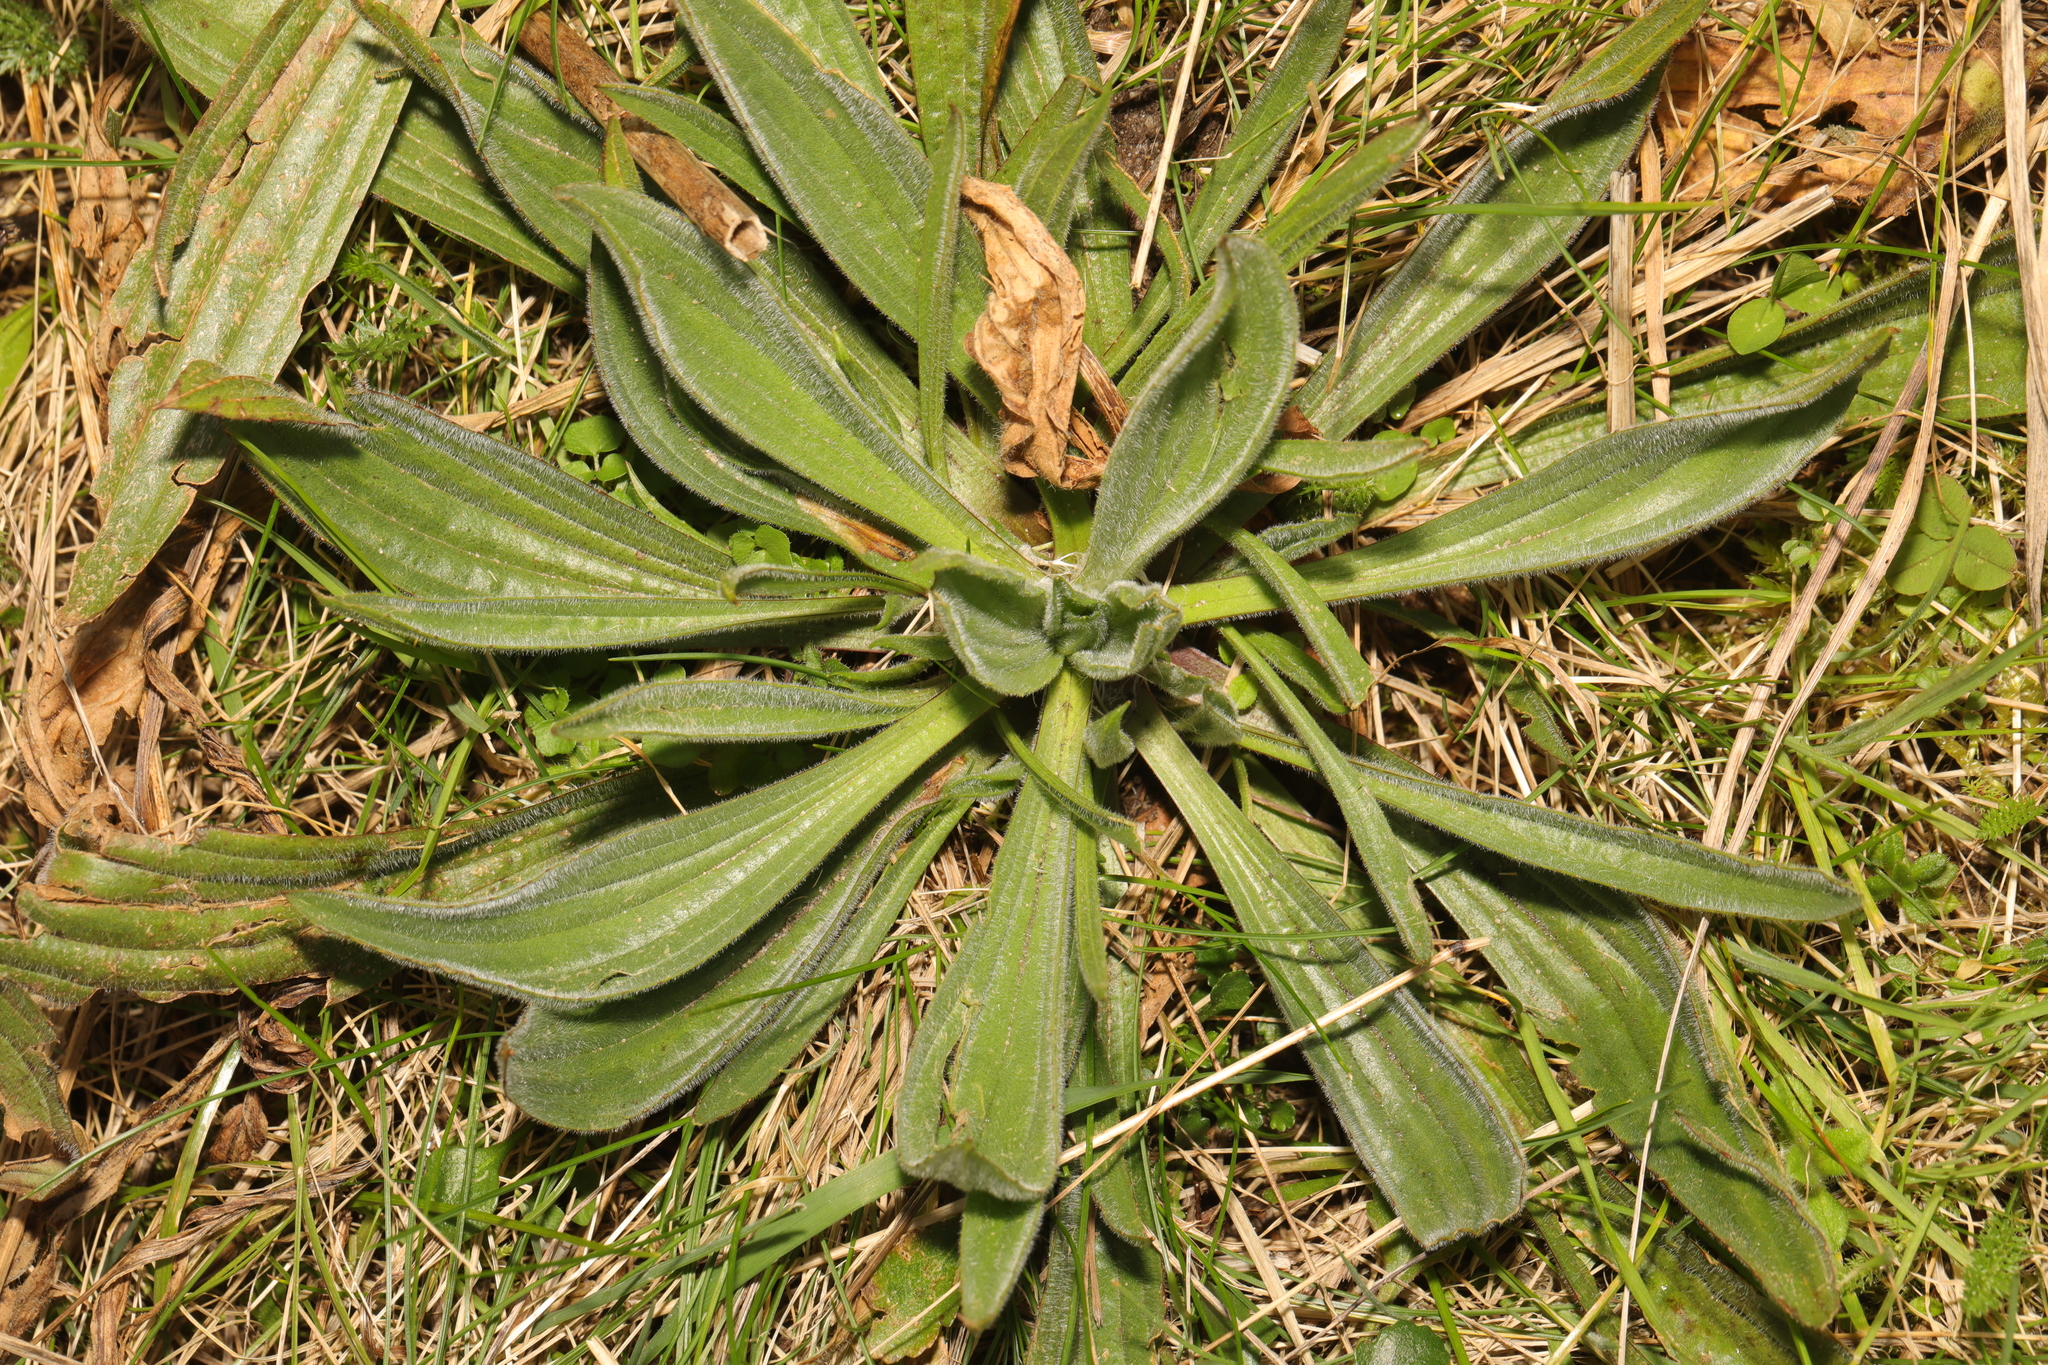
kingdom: Plantae
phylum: Tracheophyta
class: Magnoliopsida
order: Lamiales
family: Plantaginaceae
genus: Plantago
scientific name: Plantago lanceolata
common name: Ribwort plantain
